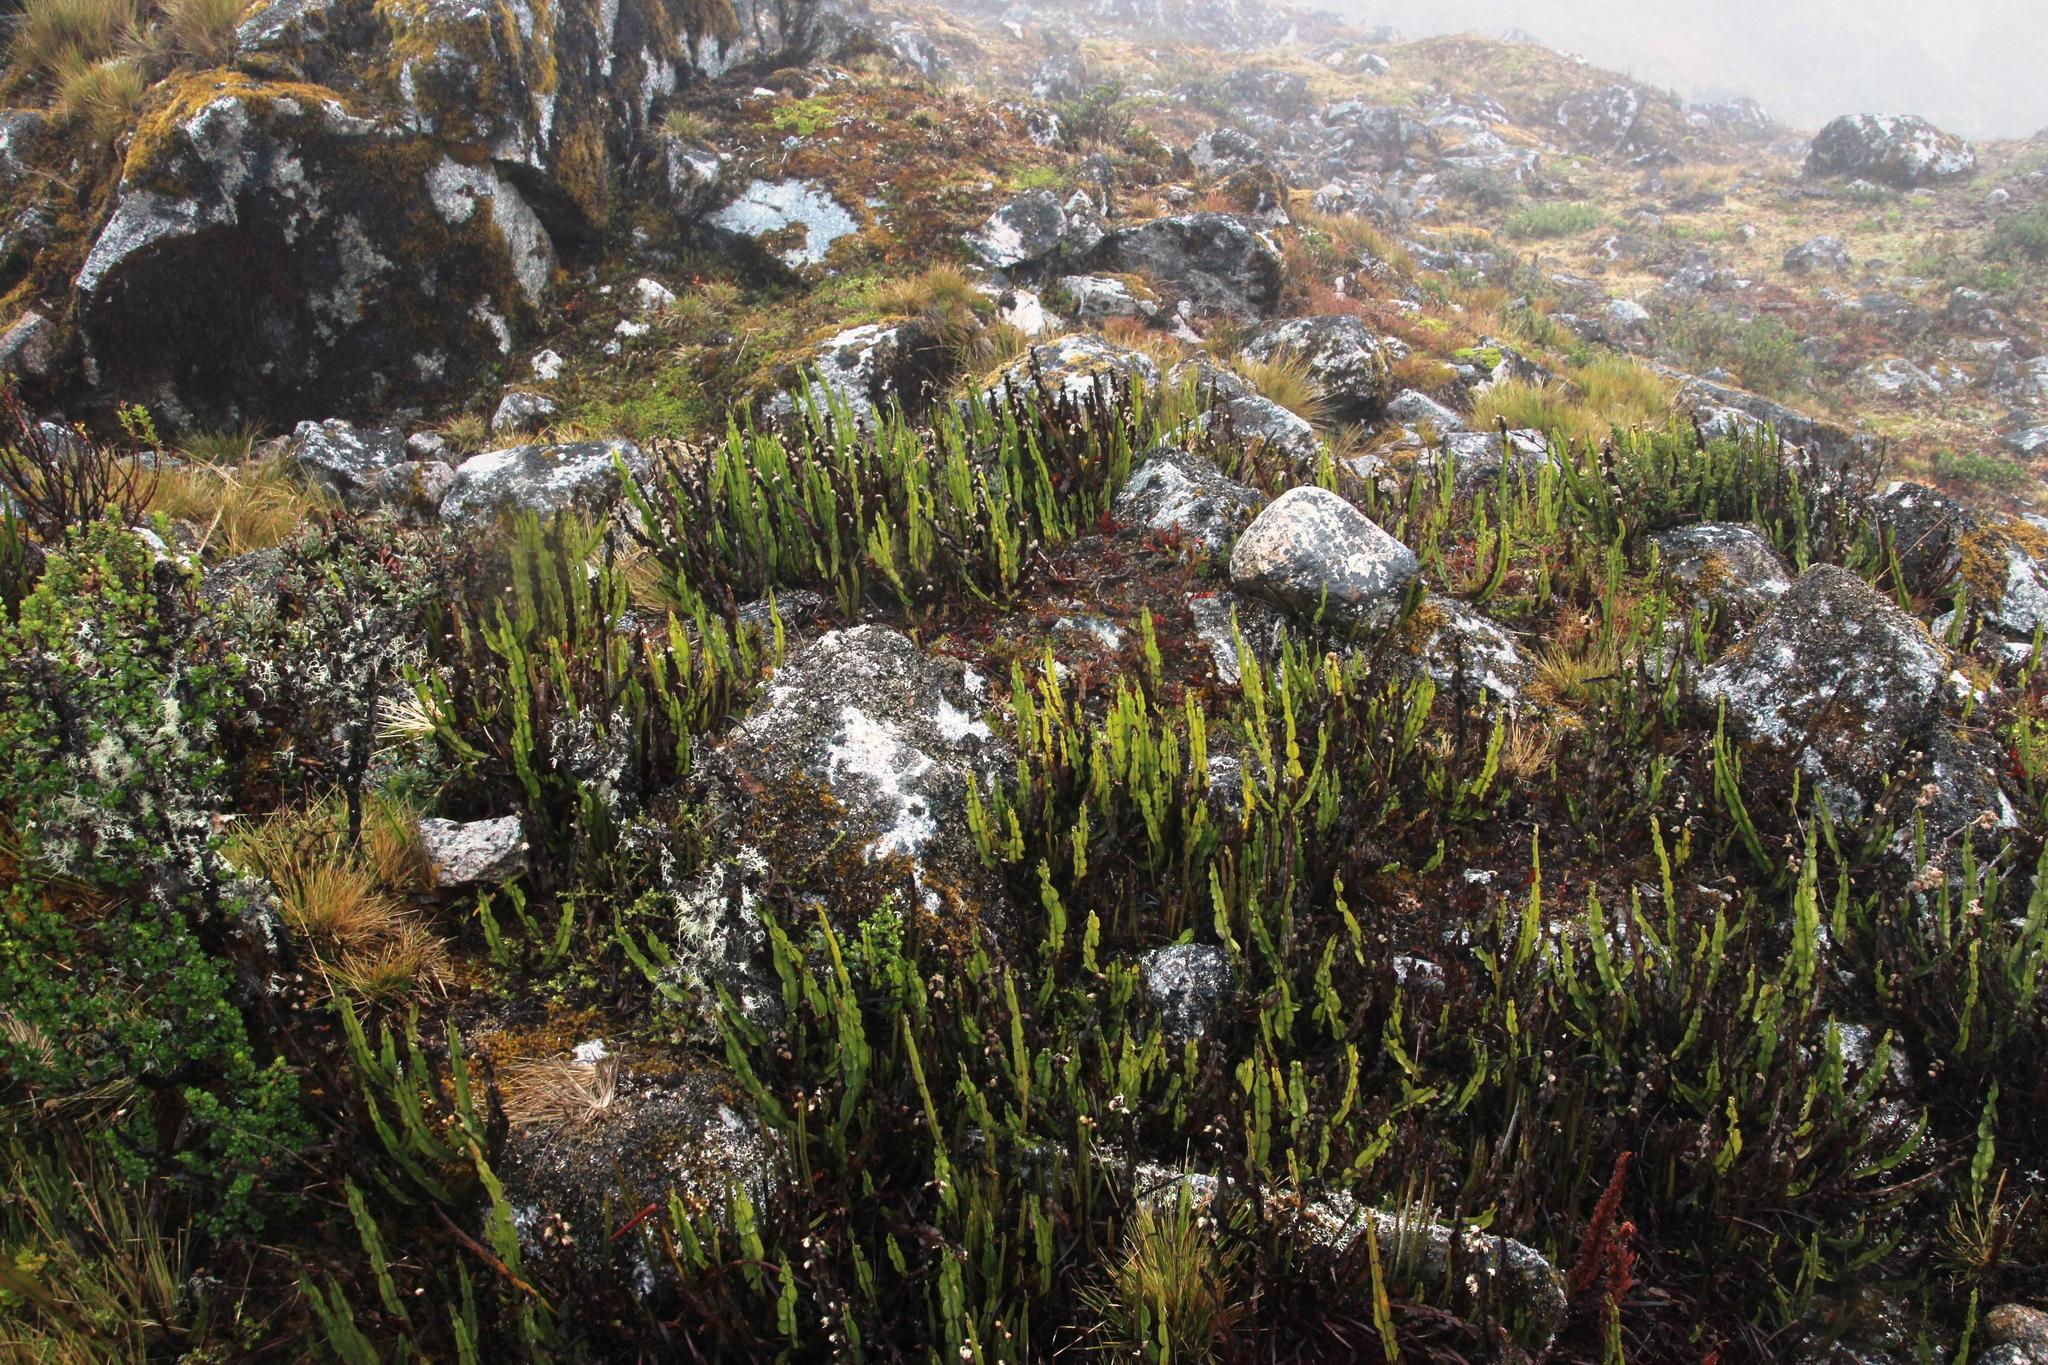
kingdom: Plantae
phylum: Tracheophyta
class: Magnoliopsida
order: Asterales
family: Asteraceae
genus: Baccharis
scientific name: Baccharis genistelloides
